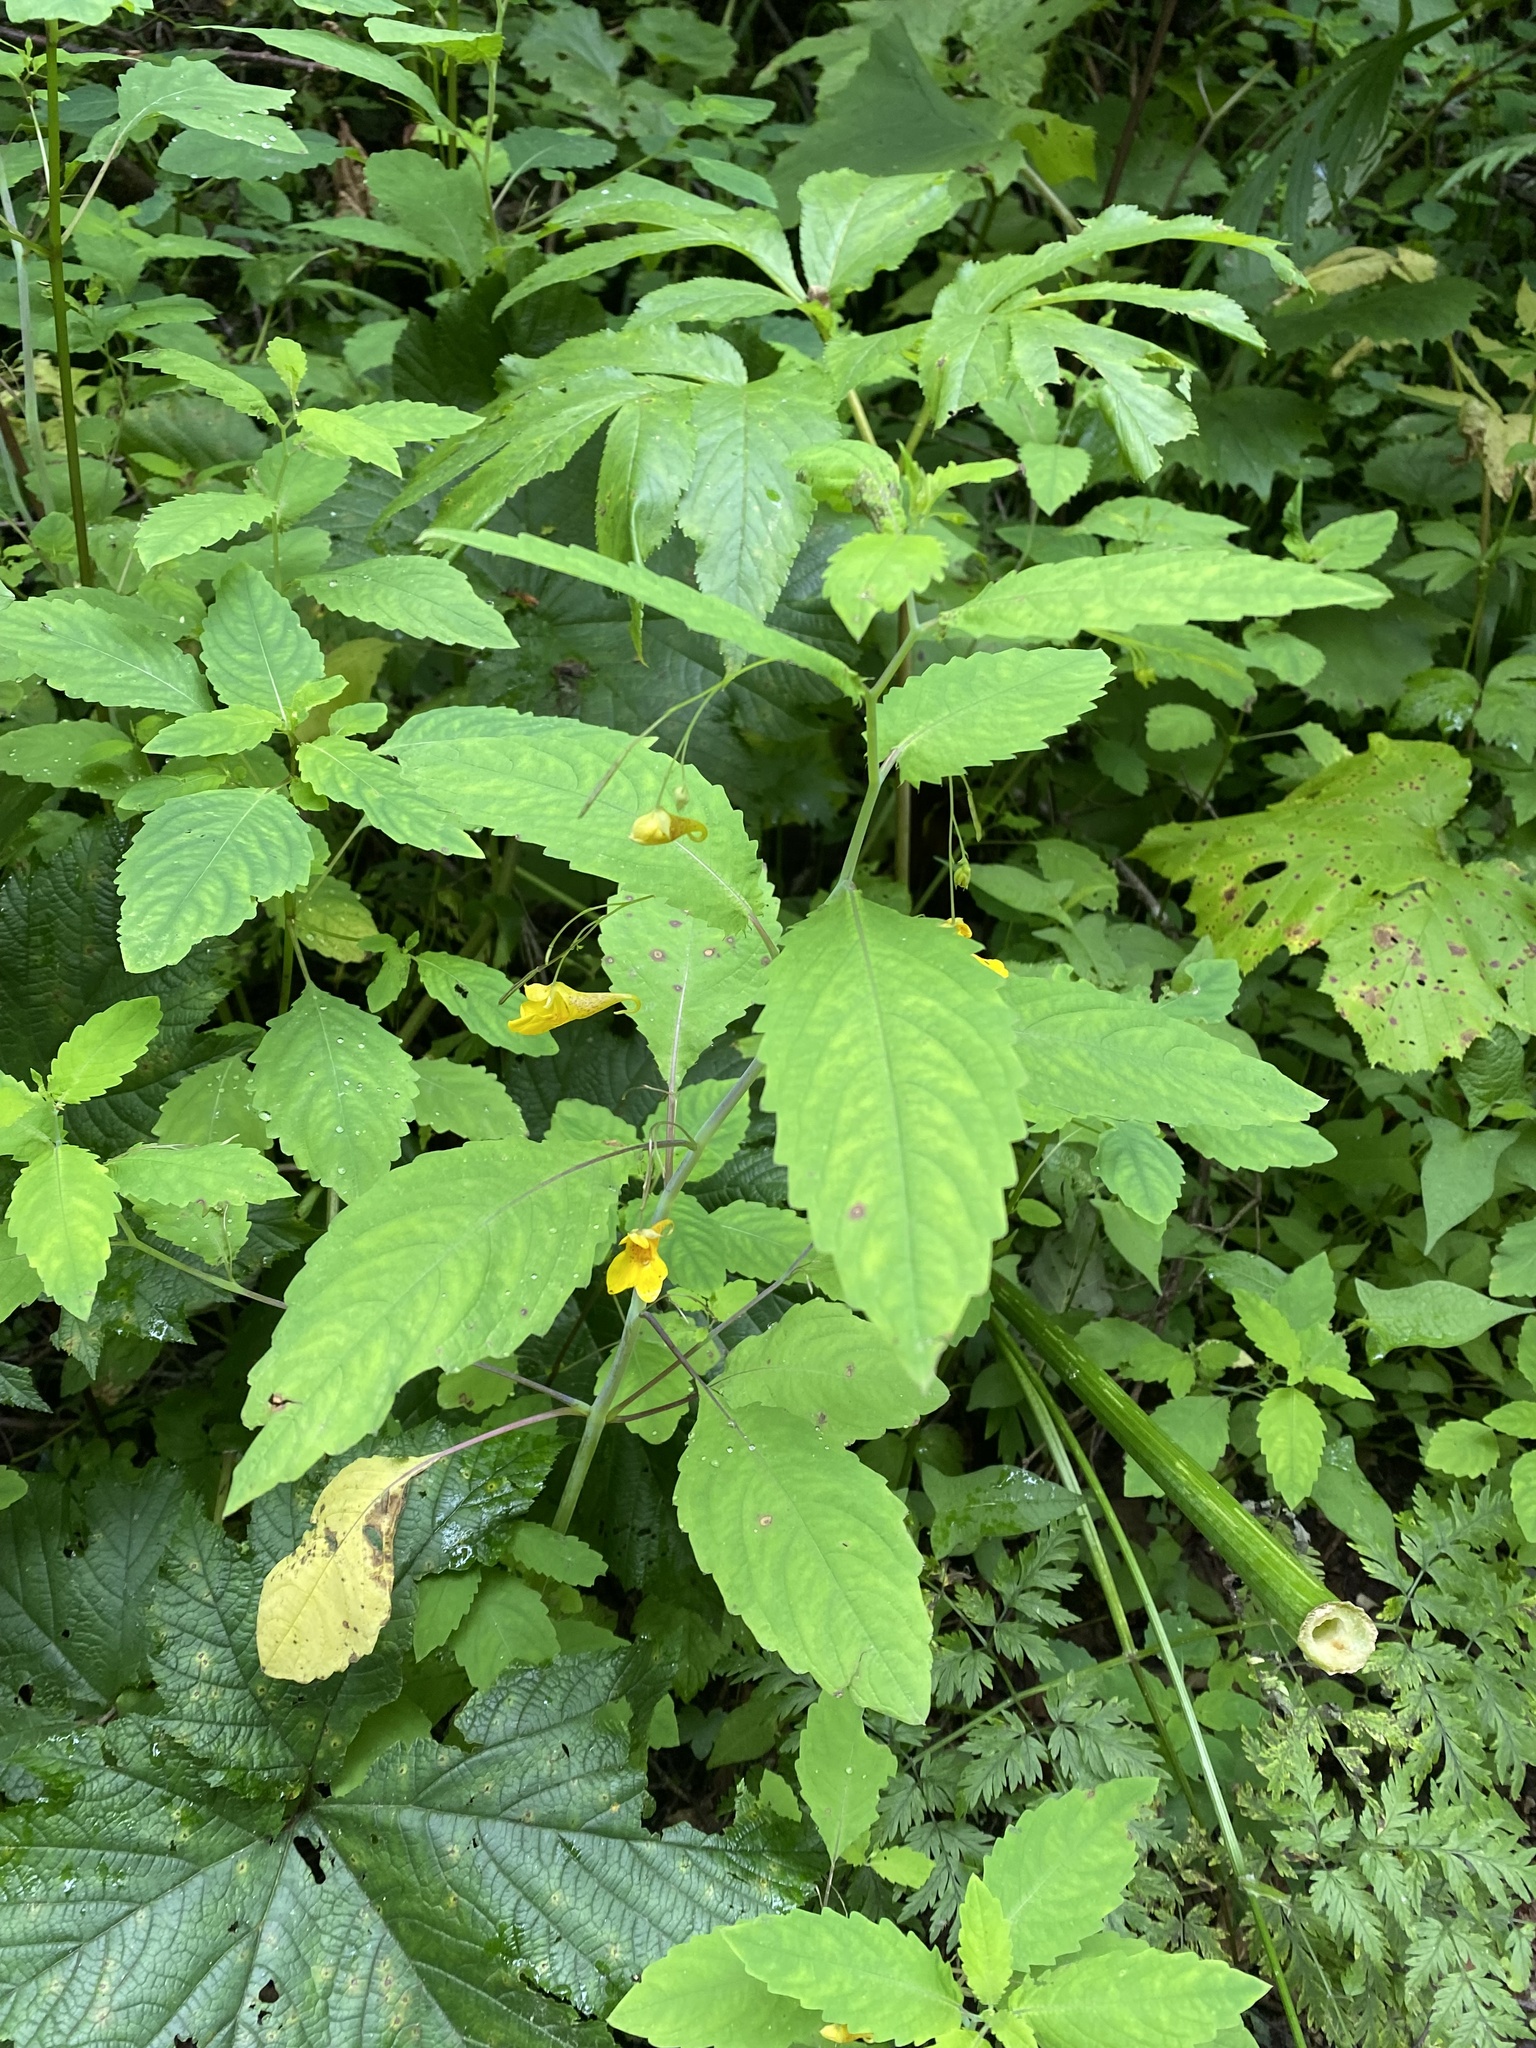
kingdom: Plantae
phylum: Tracheophyta
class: Magnoliopsida
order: Ericales
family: Balsaminaceae
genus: Impatiens
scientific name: Impatiens noli-tangere
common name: Touch-me-not balsam
